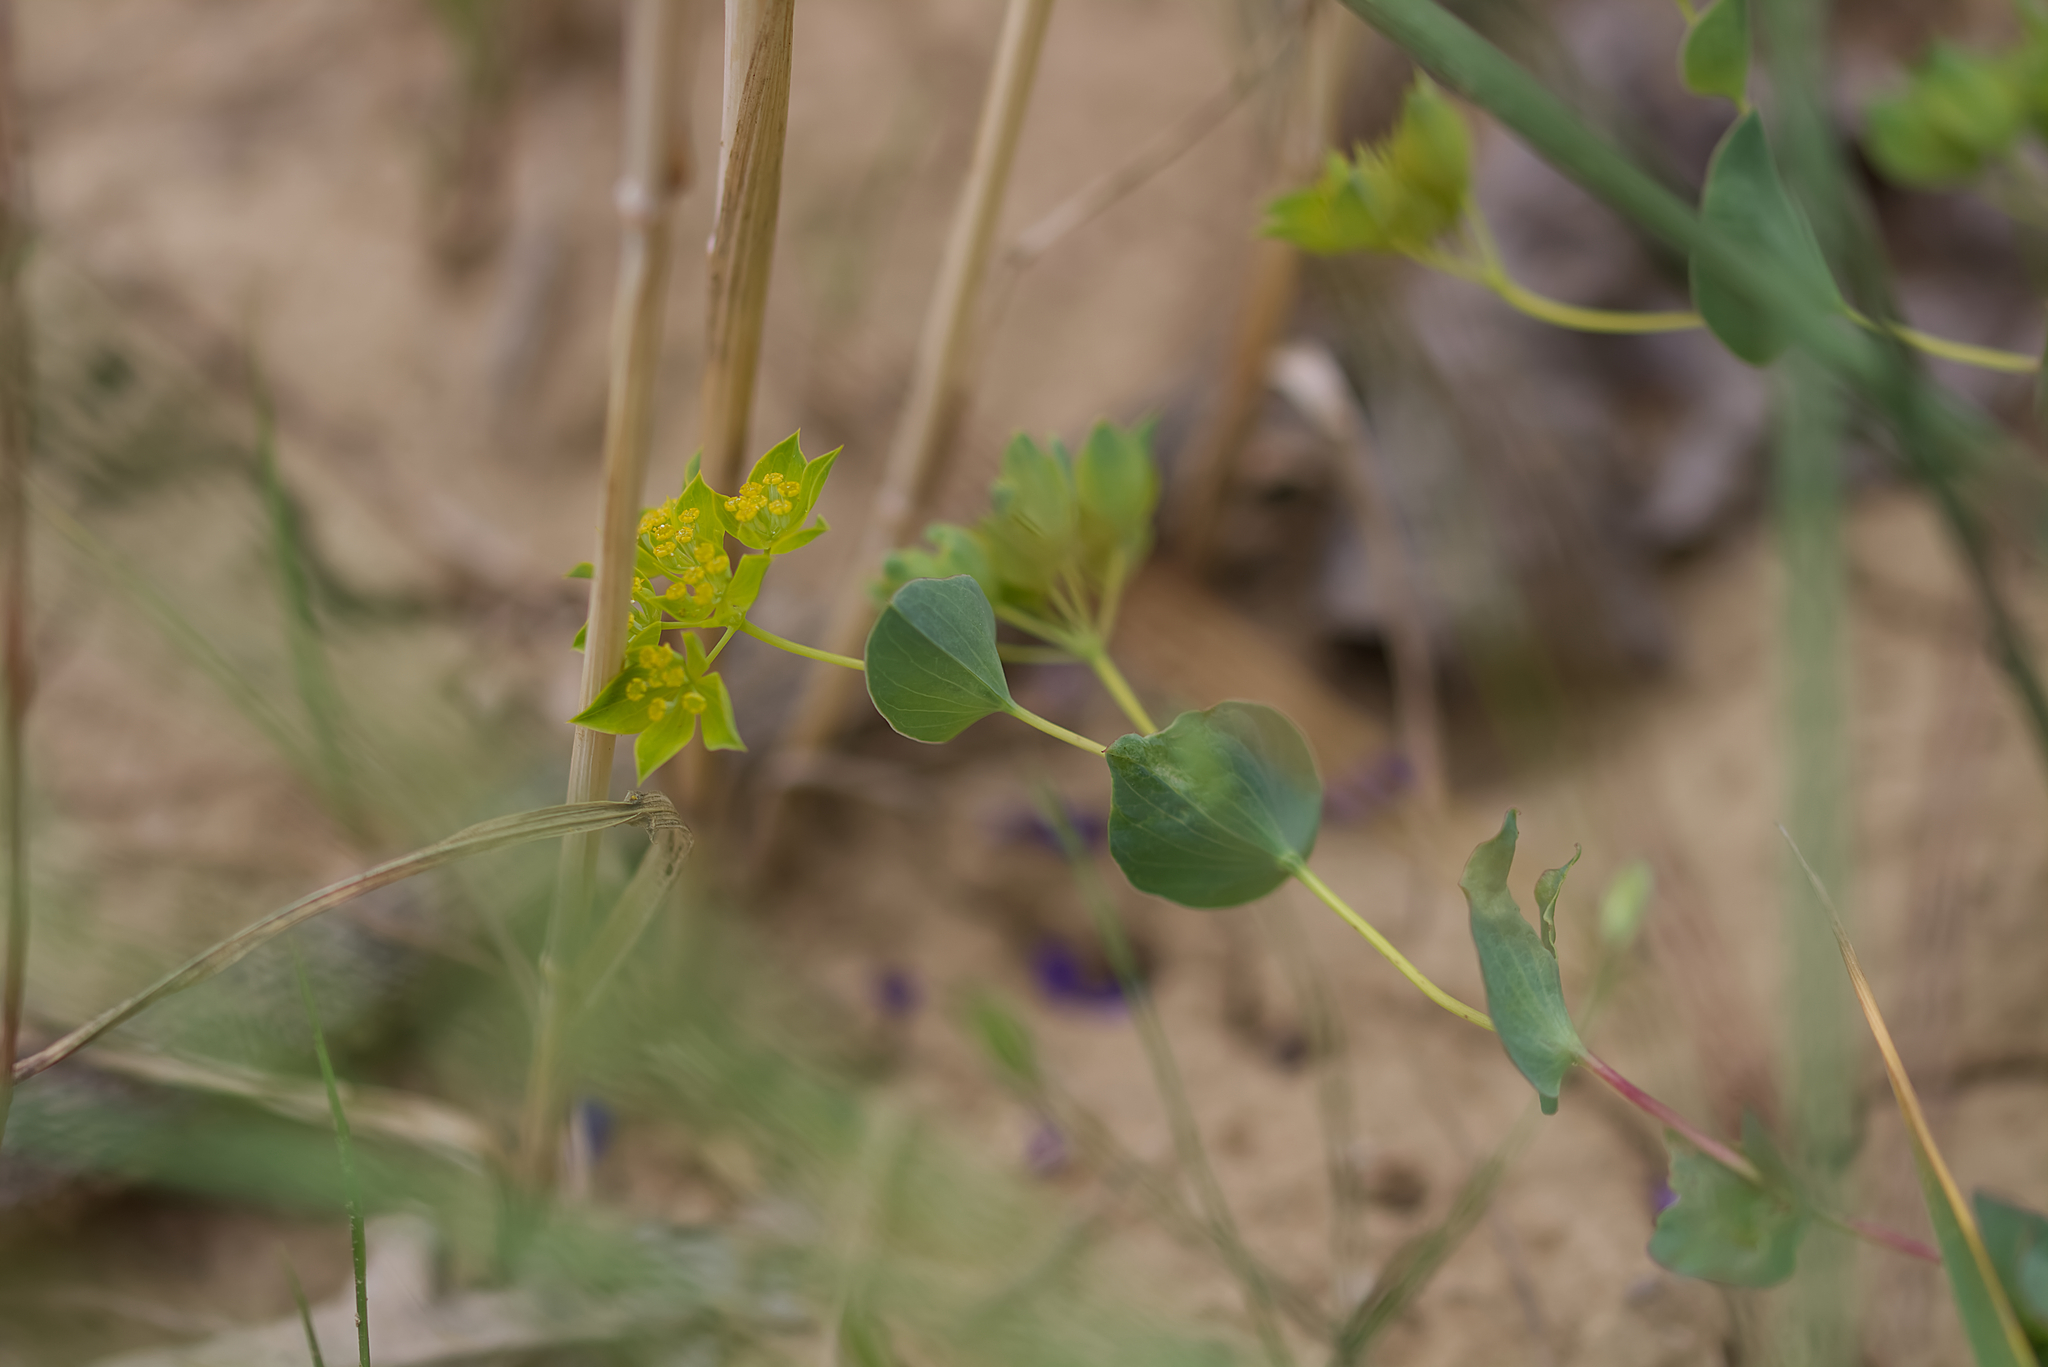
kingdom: Plantae
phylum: Tracheophyta
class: Magnoliopsida
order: Apiales
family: Apiaceae
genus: Bupleurum
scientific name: Bupleurum rotundifolium
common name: Thorow-wax
